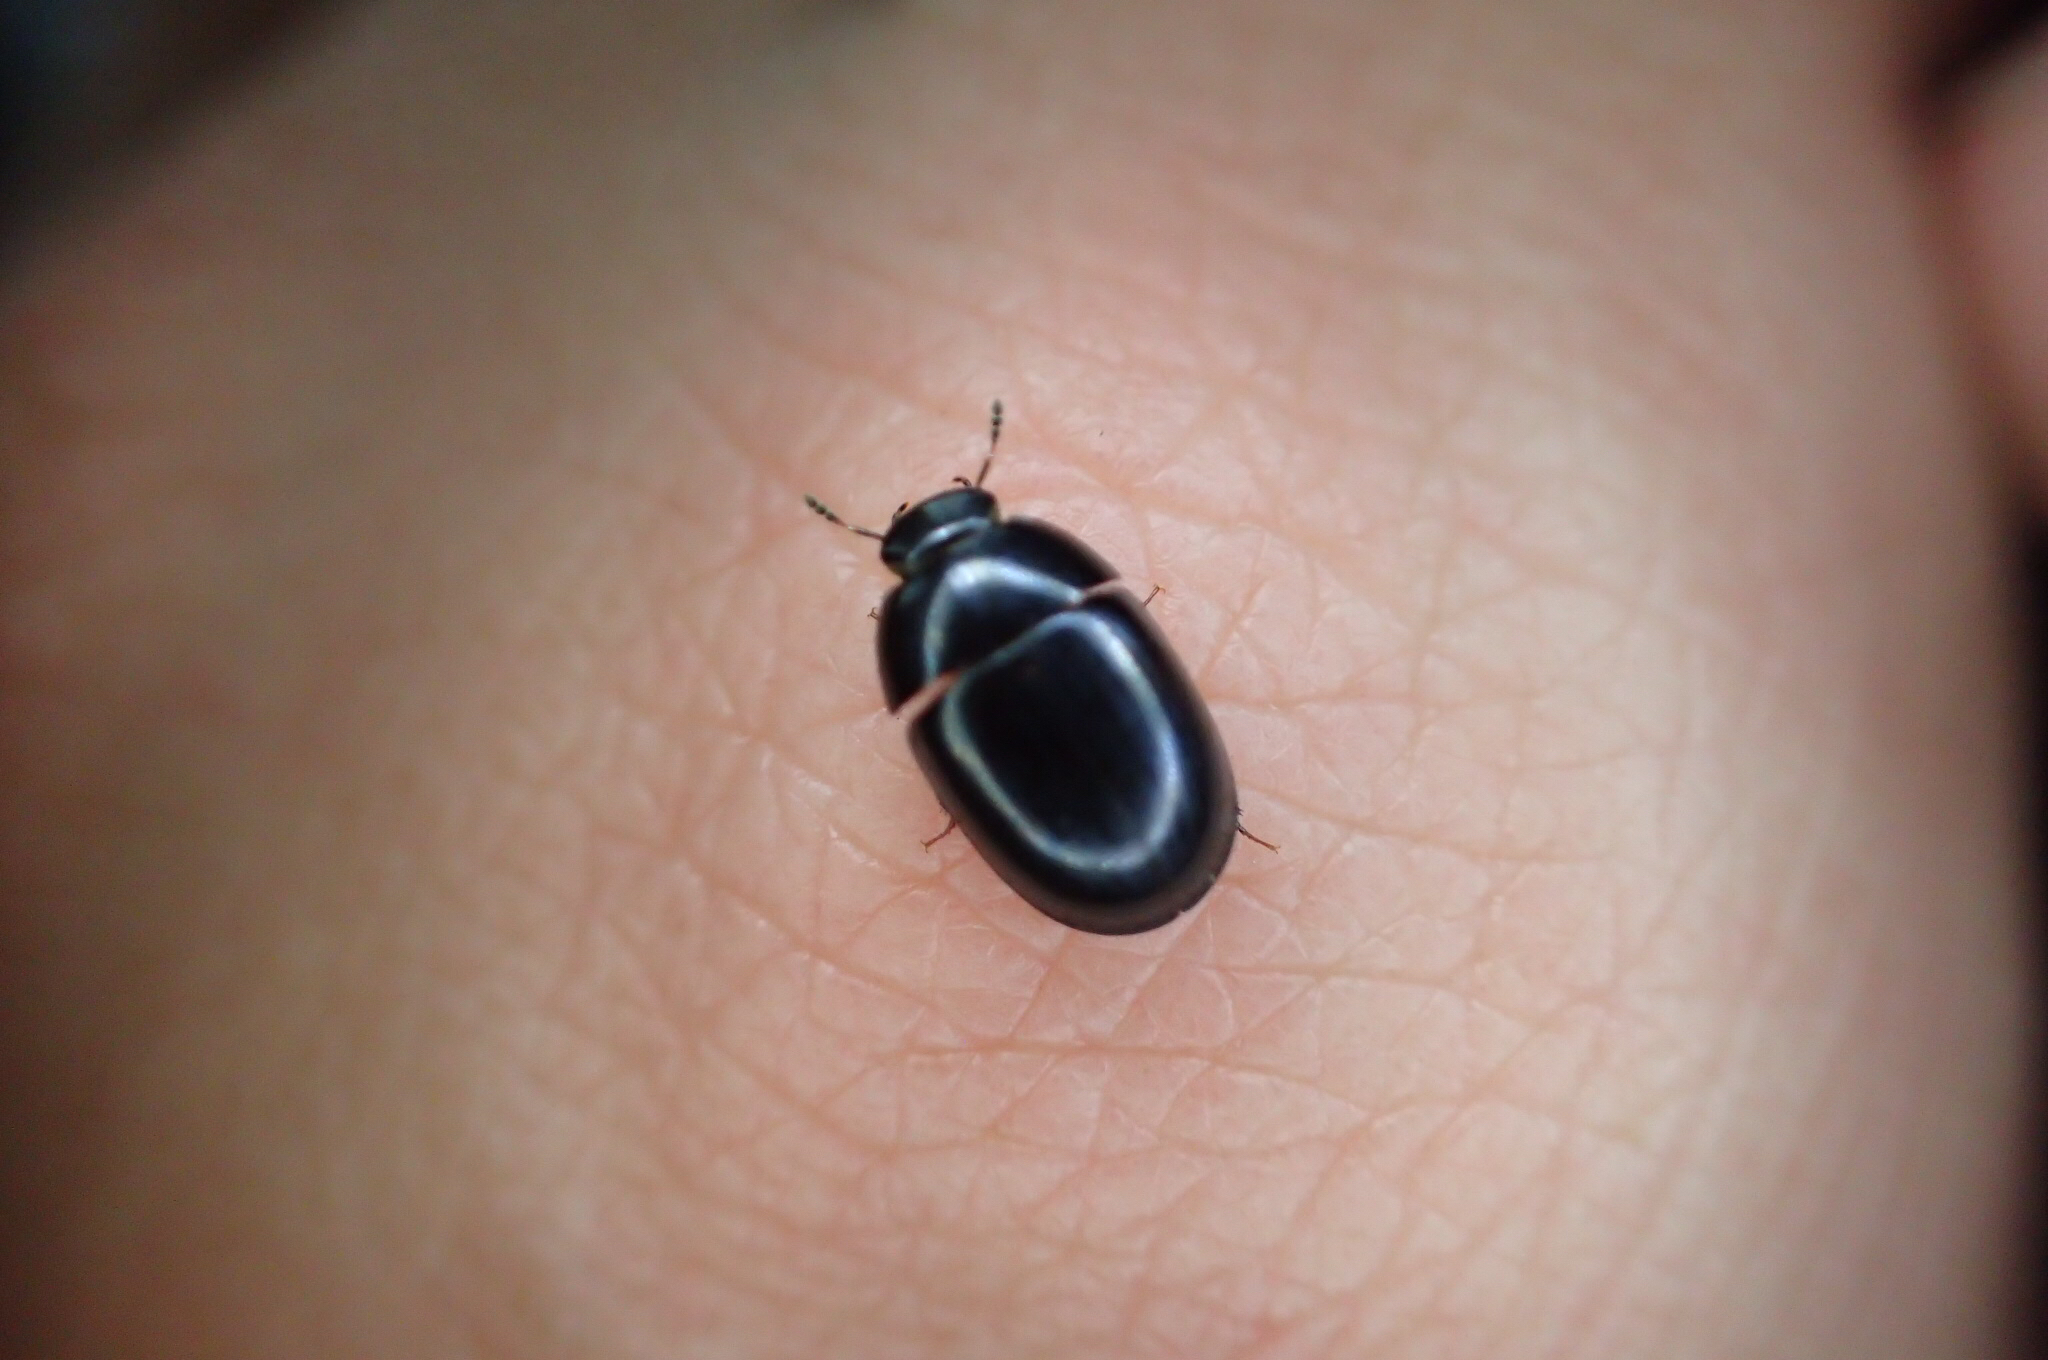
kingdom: Animalia
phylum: Arthropoda
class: Insecta
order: Coleoptera
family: Hydrophilidae
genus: Dactylosternum
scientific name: Dactylosternum
